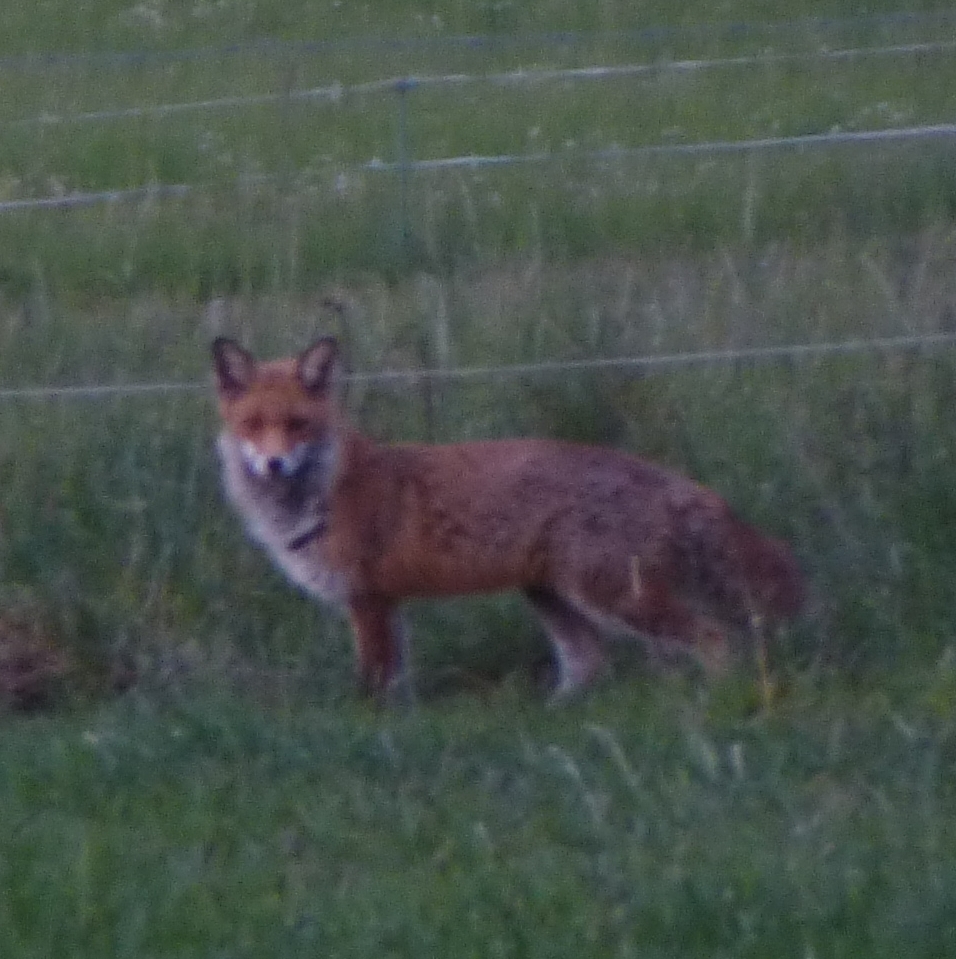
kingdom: Animalia
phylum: Chordata
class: Mammalia
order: Carnivora
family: Canidae
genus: Vulpes
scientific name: Vulpes vulpes
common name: Red fox
